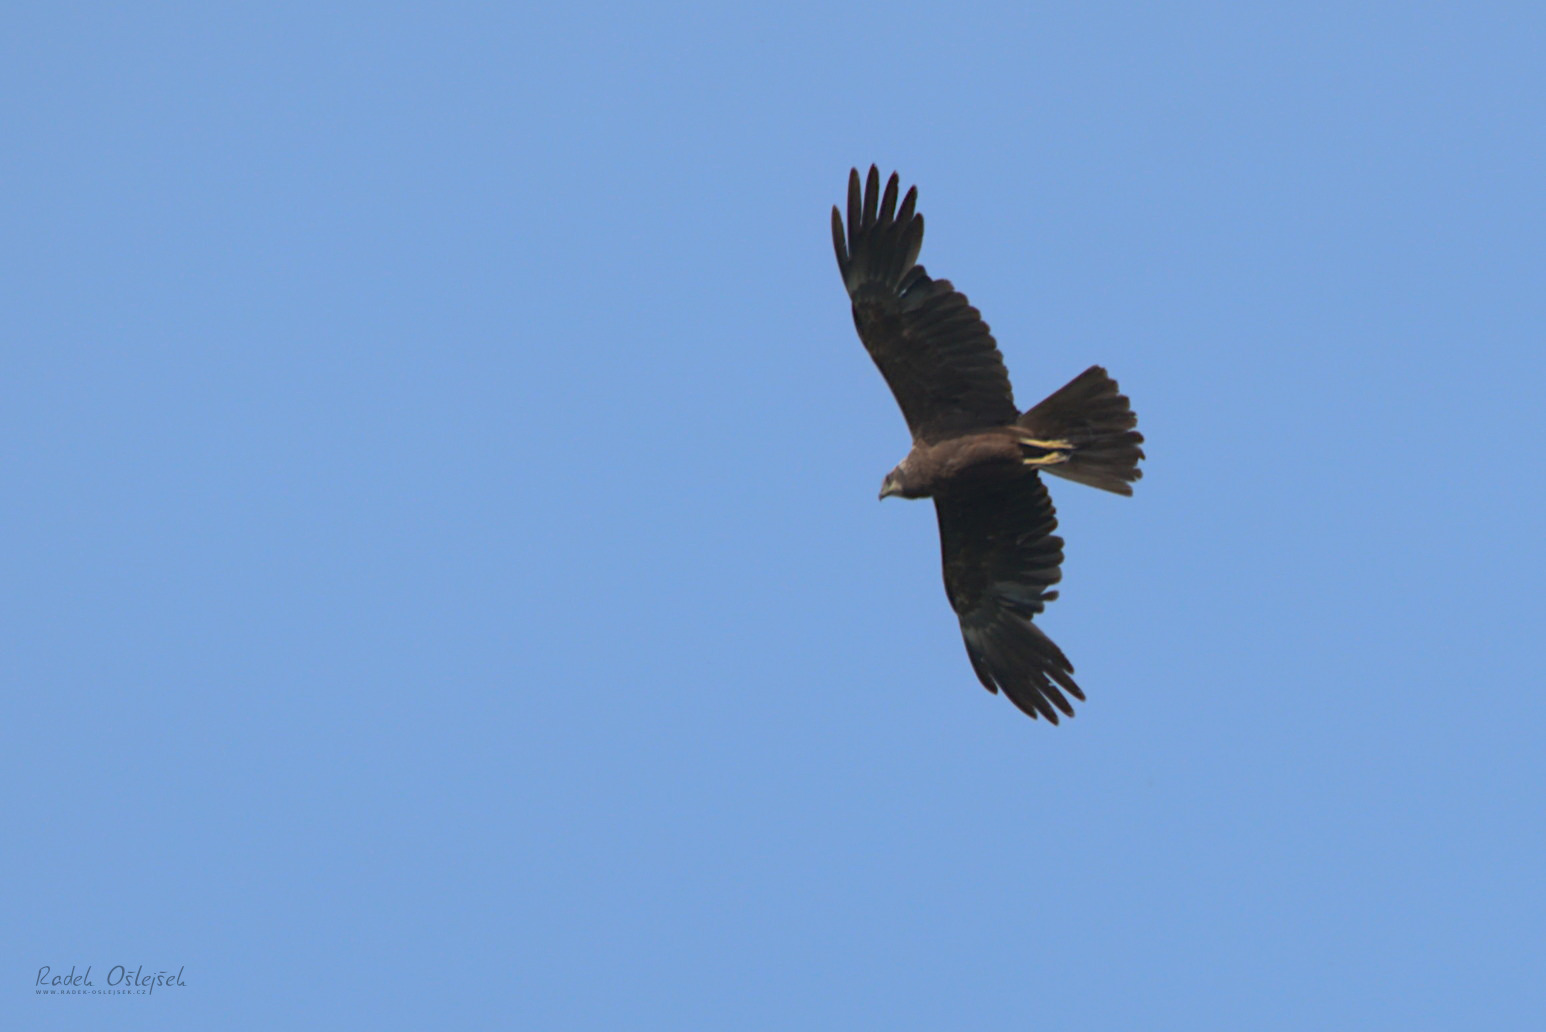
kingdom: Animalia
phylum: Chordata
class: Aves
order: Accipitriformes
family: Accipitridae
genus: Circus
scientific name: Circus aeruginosus
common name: Western marsh harrier
